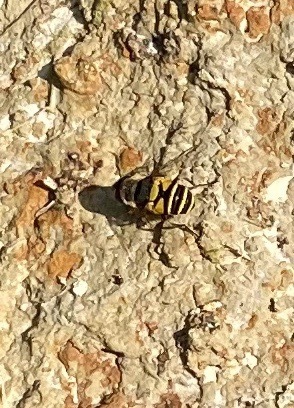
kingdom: Animalia
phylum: Arthropoda
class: Insecta
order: Diptera
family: Syrphidae
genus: Eristalis
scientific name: Eristalis transversa
